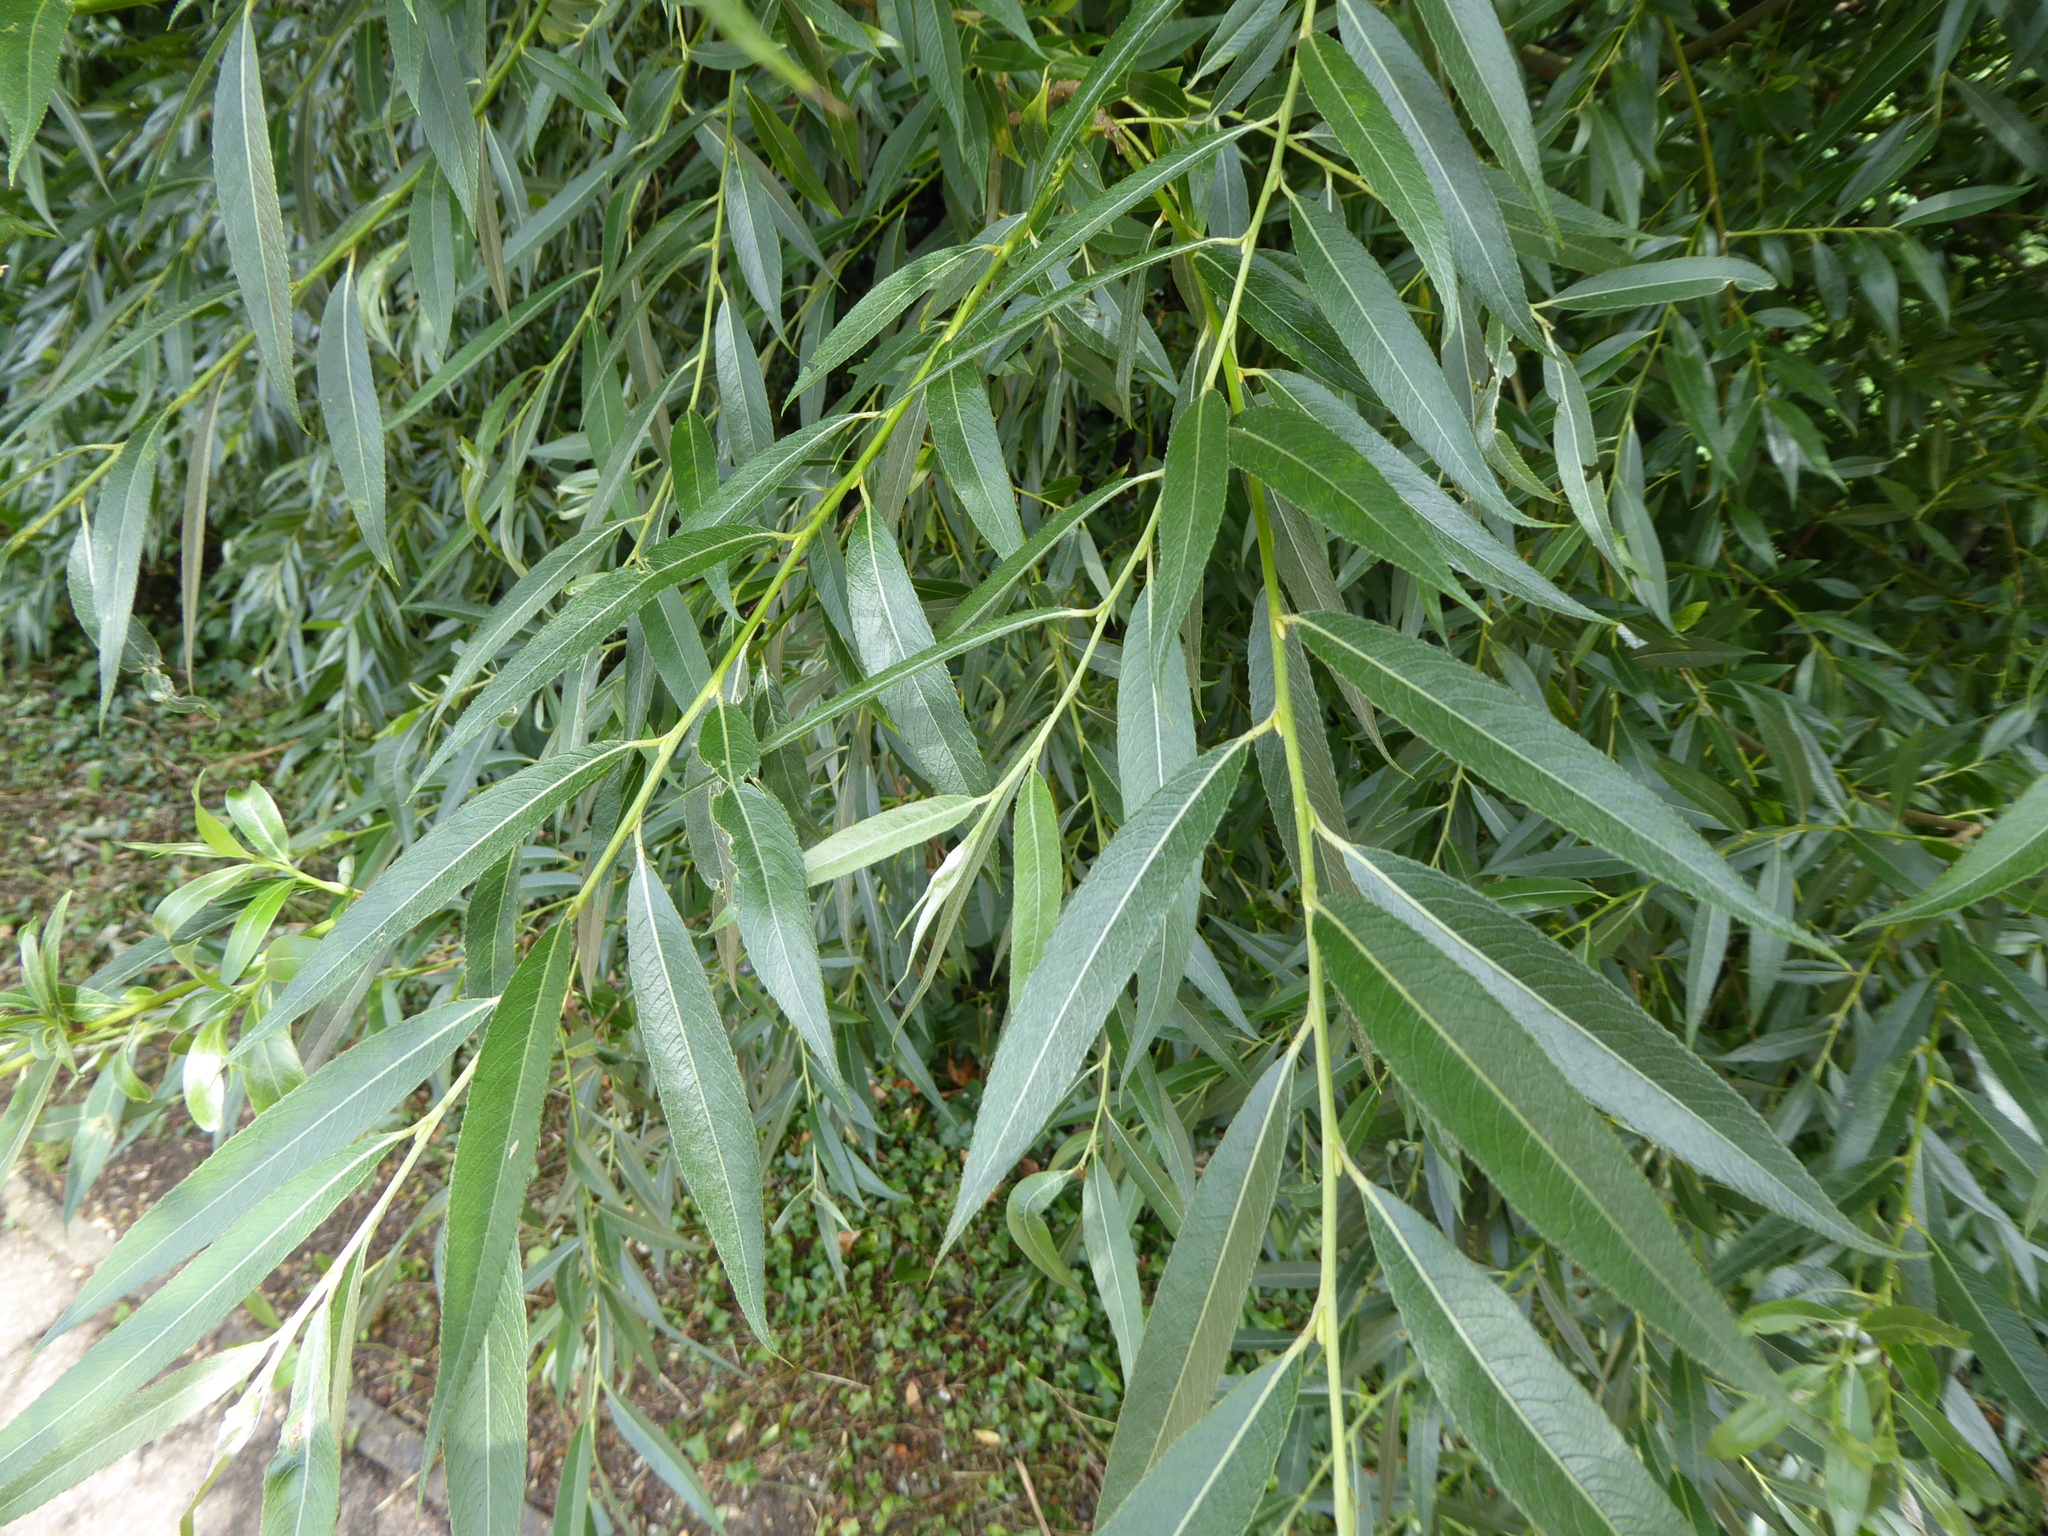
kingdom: Plantae
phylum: Tracheophyta
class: Magnoliopsida
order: Malpighiales
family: Salicaceae
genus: Salix
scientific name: Salix alba
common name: White willow
